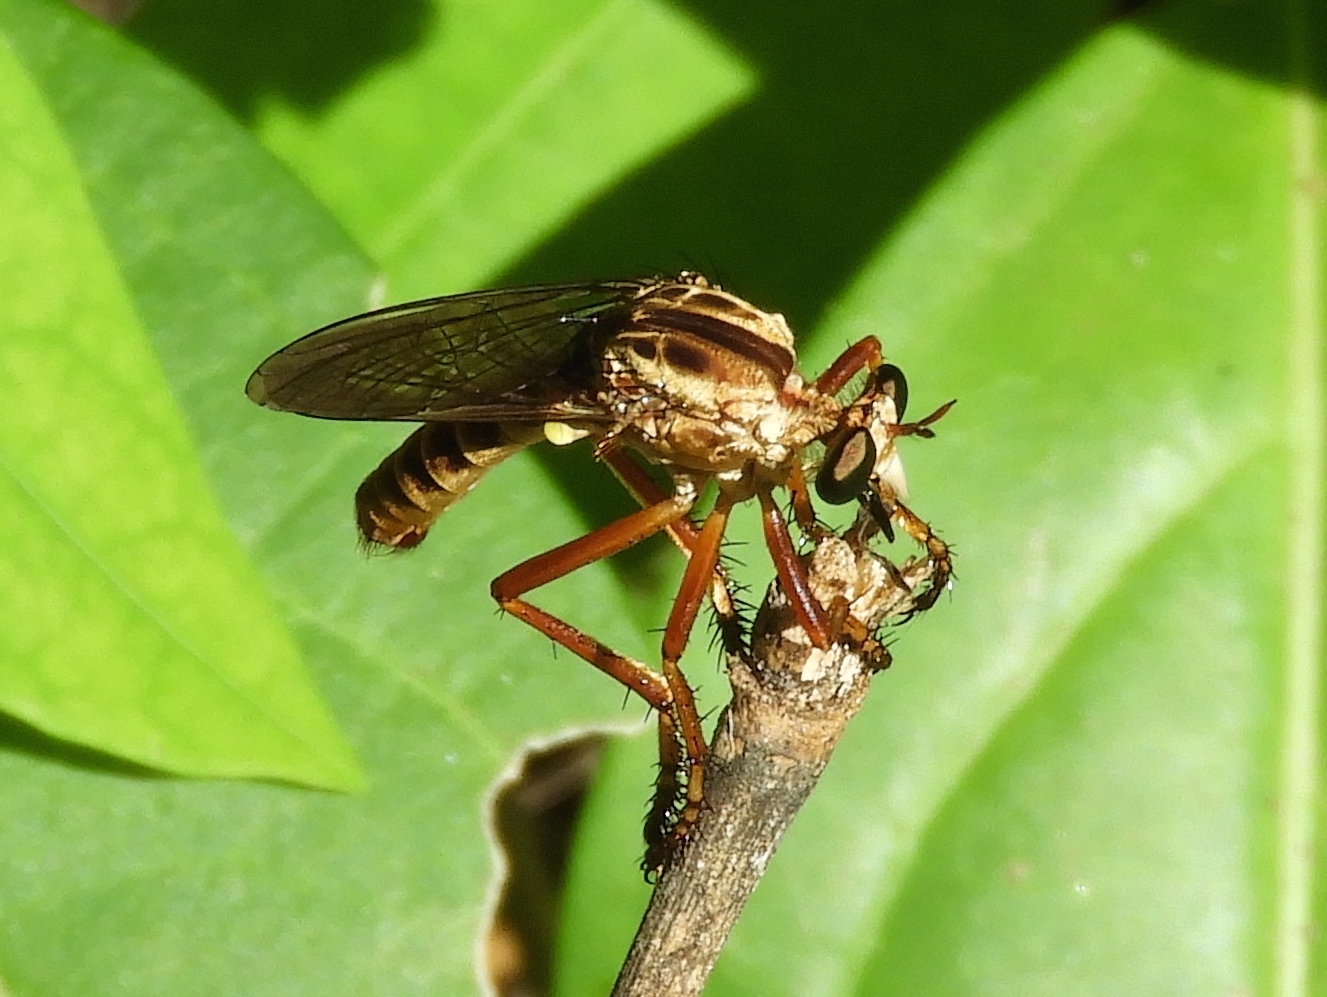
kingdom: Animalia
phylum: Arthropoda
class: Insecta
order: Diptera
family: Asilidae
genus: Diogmites
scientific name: Diogmites
